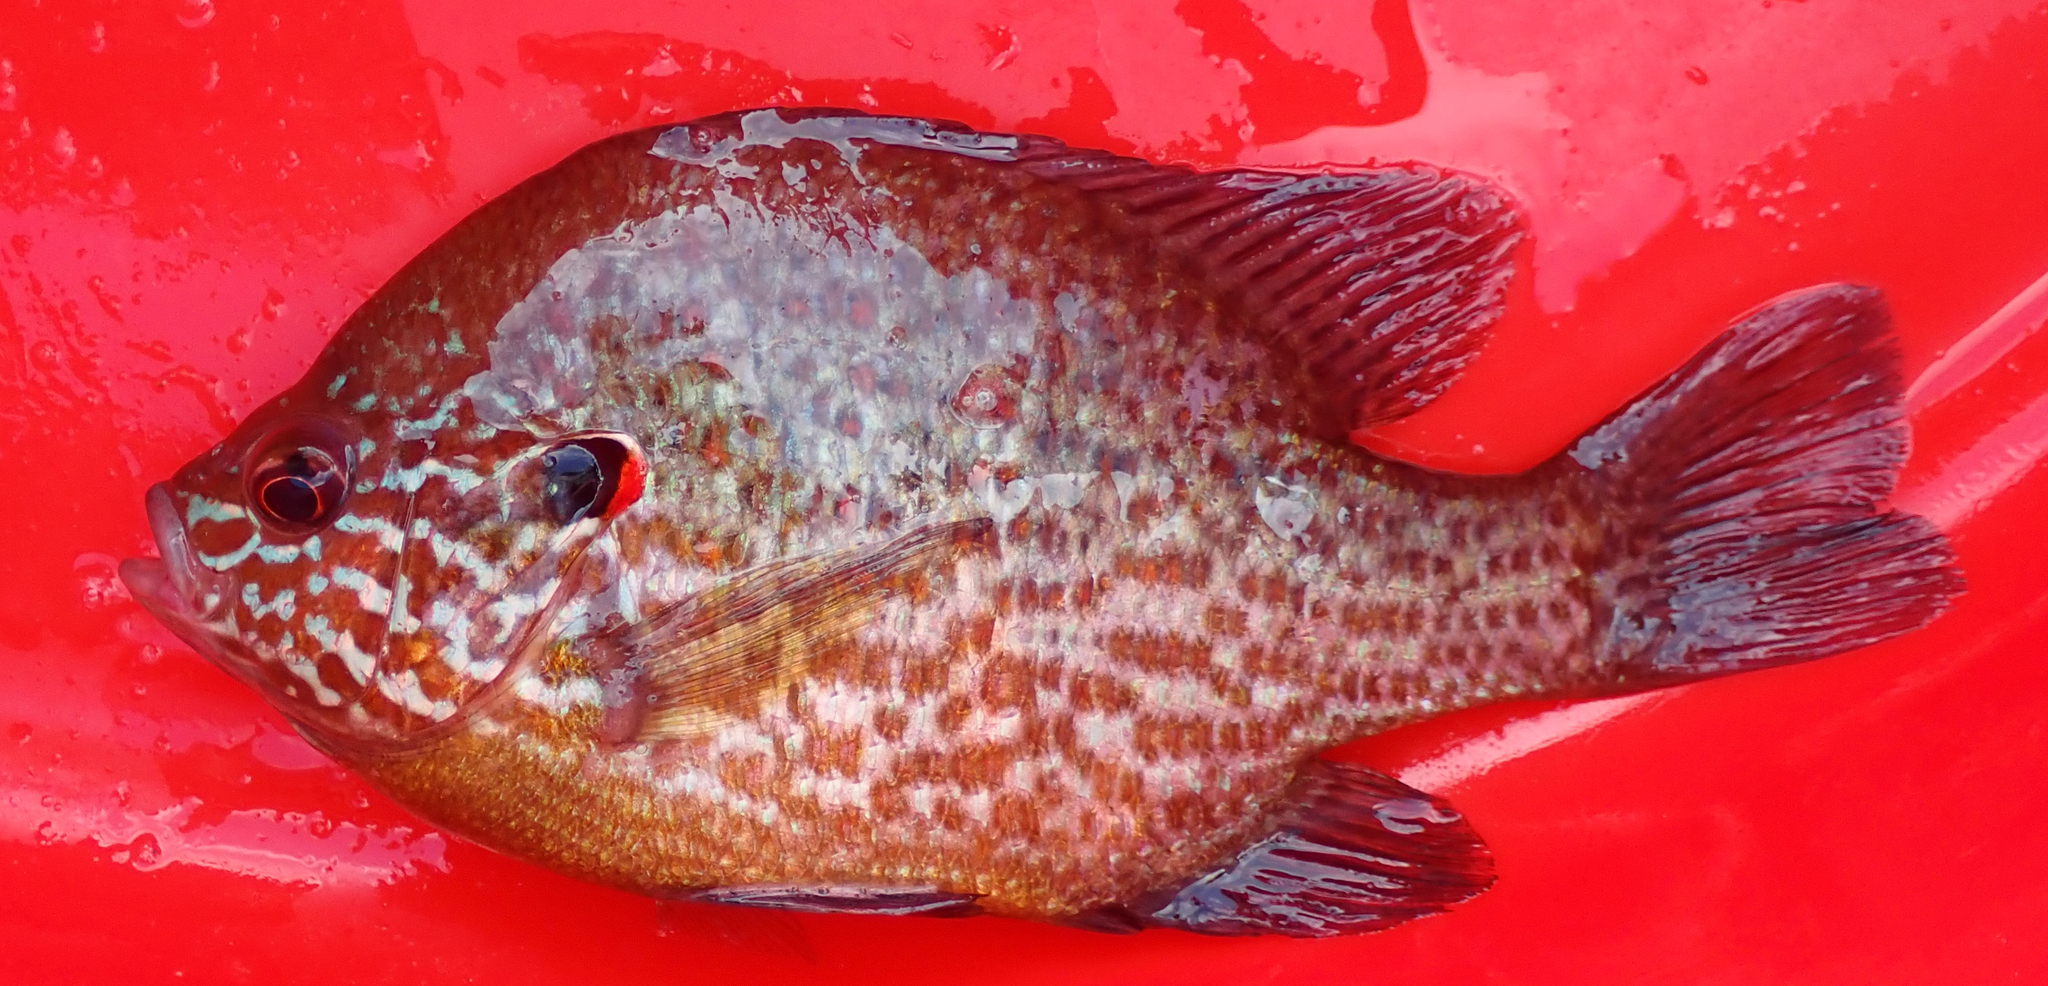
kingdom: Animalia
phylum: Chordata
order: Perciformes
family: Centrarchidae
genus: Lepomis
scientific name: Lepomis gibbosus
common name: Pumpkinseed
